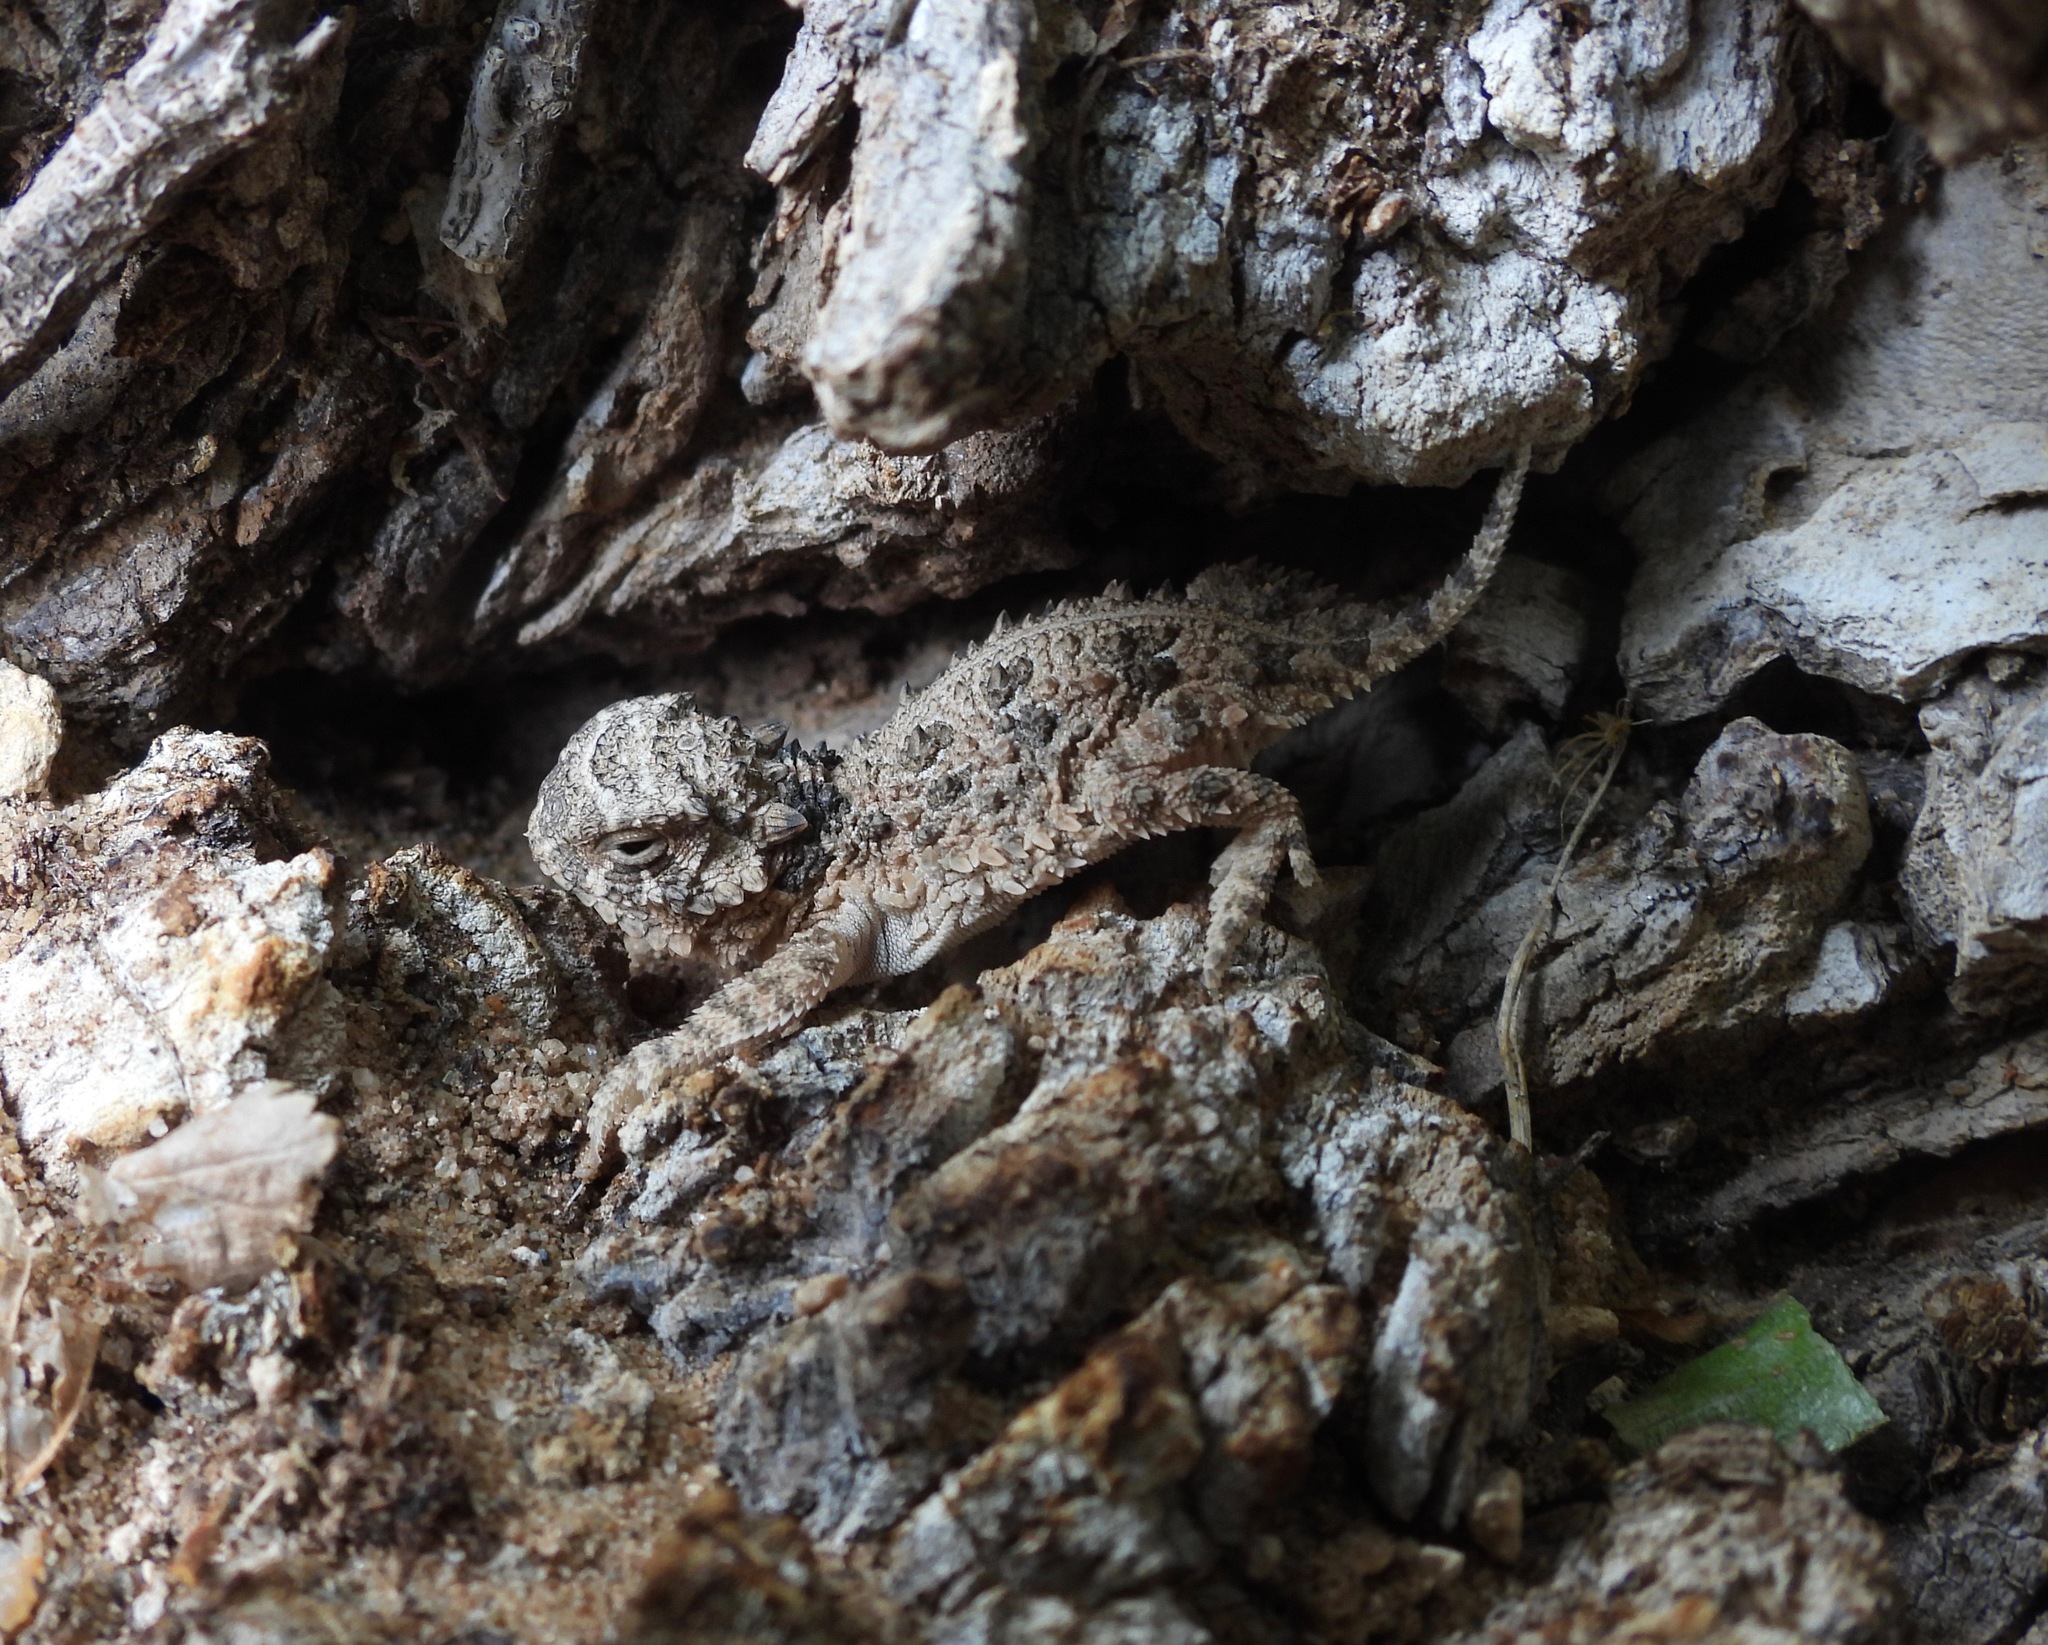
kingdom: Animalia
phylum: Chordata
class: Squamata
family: Phrynosomatidae
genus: Phrynosoma
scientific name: Phrynosoma cornutum
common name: Texas horned lizard
